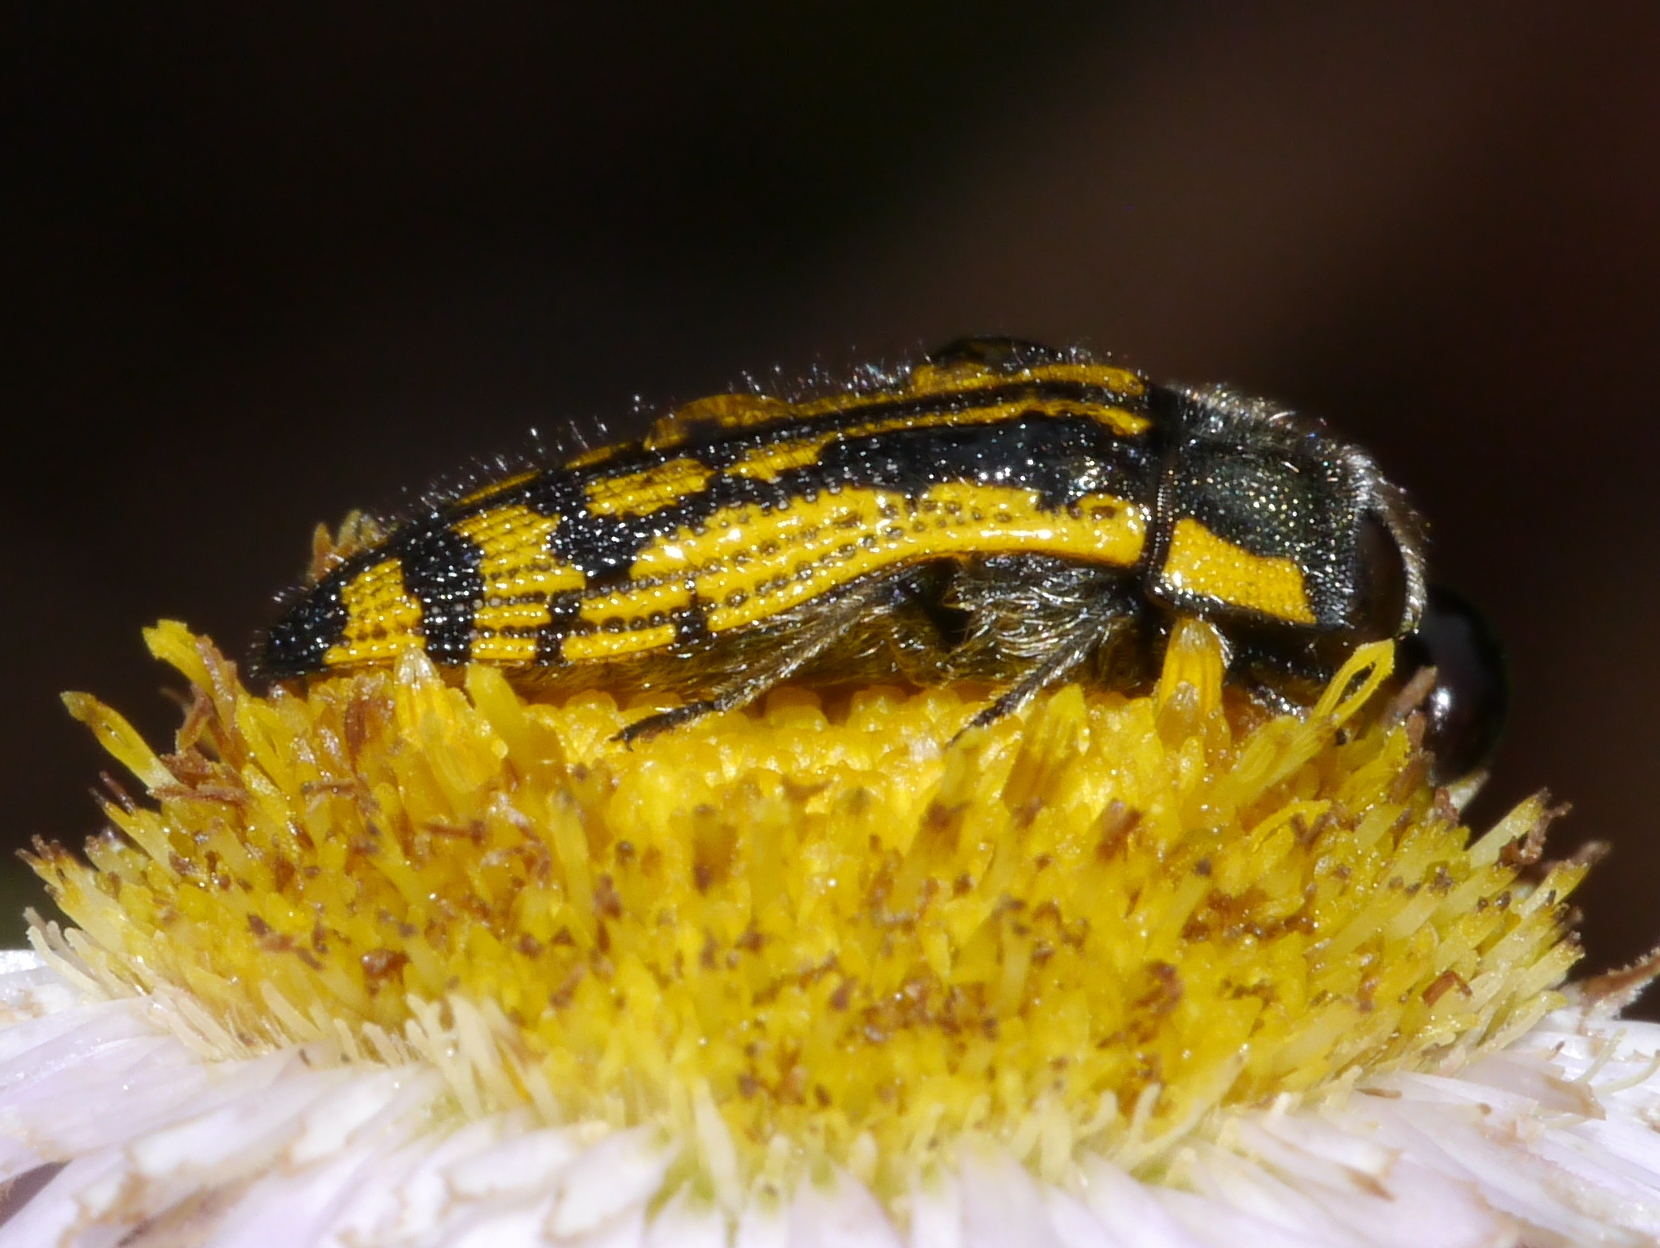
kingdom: Animalia
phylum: Arthropoda
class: Insecta
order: Coleoptera
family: Buprestidae
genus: Acmaeodera
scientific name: Acmaeodera amplicollis
